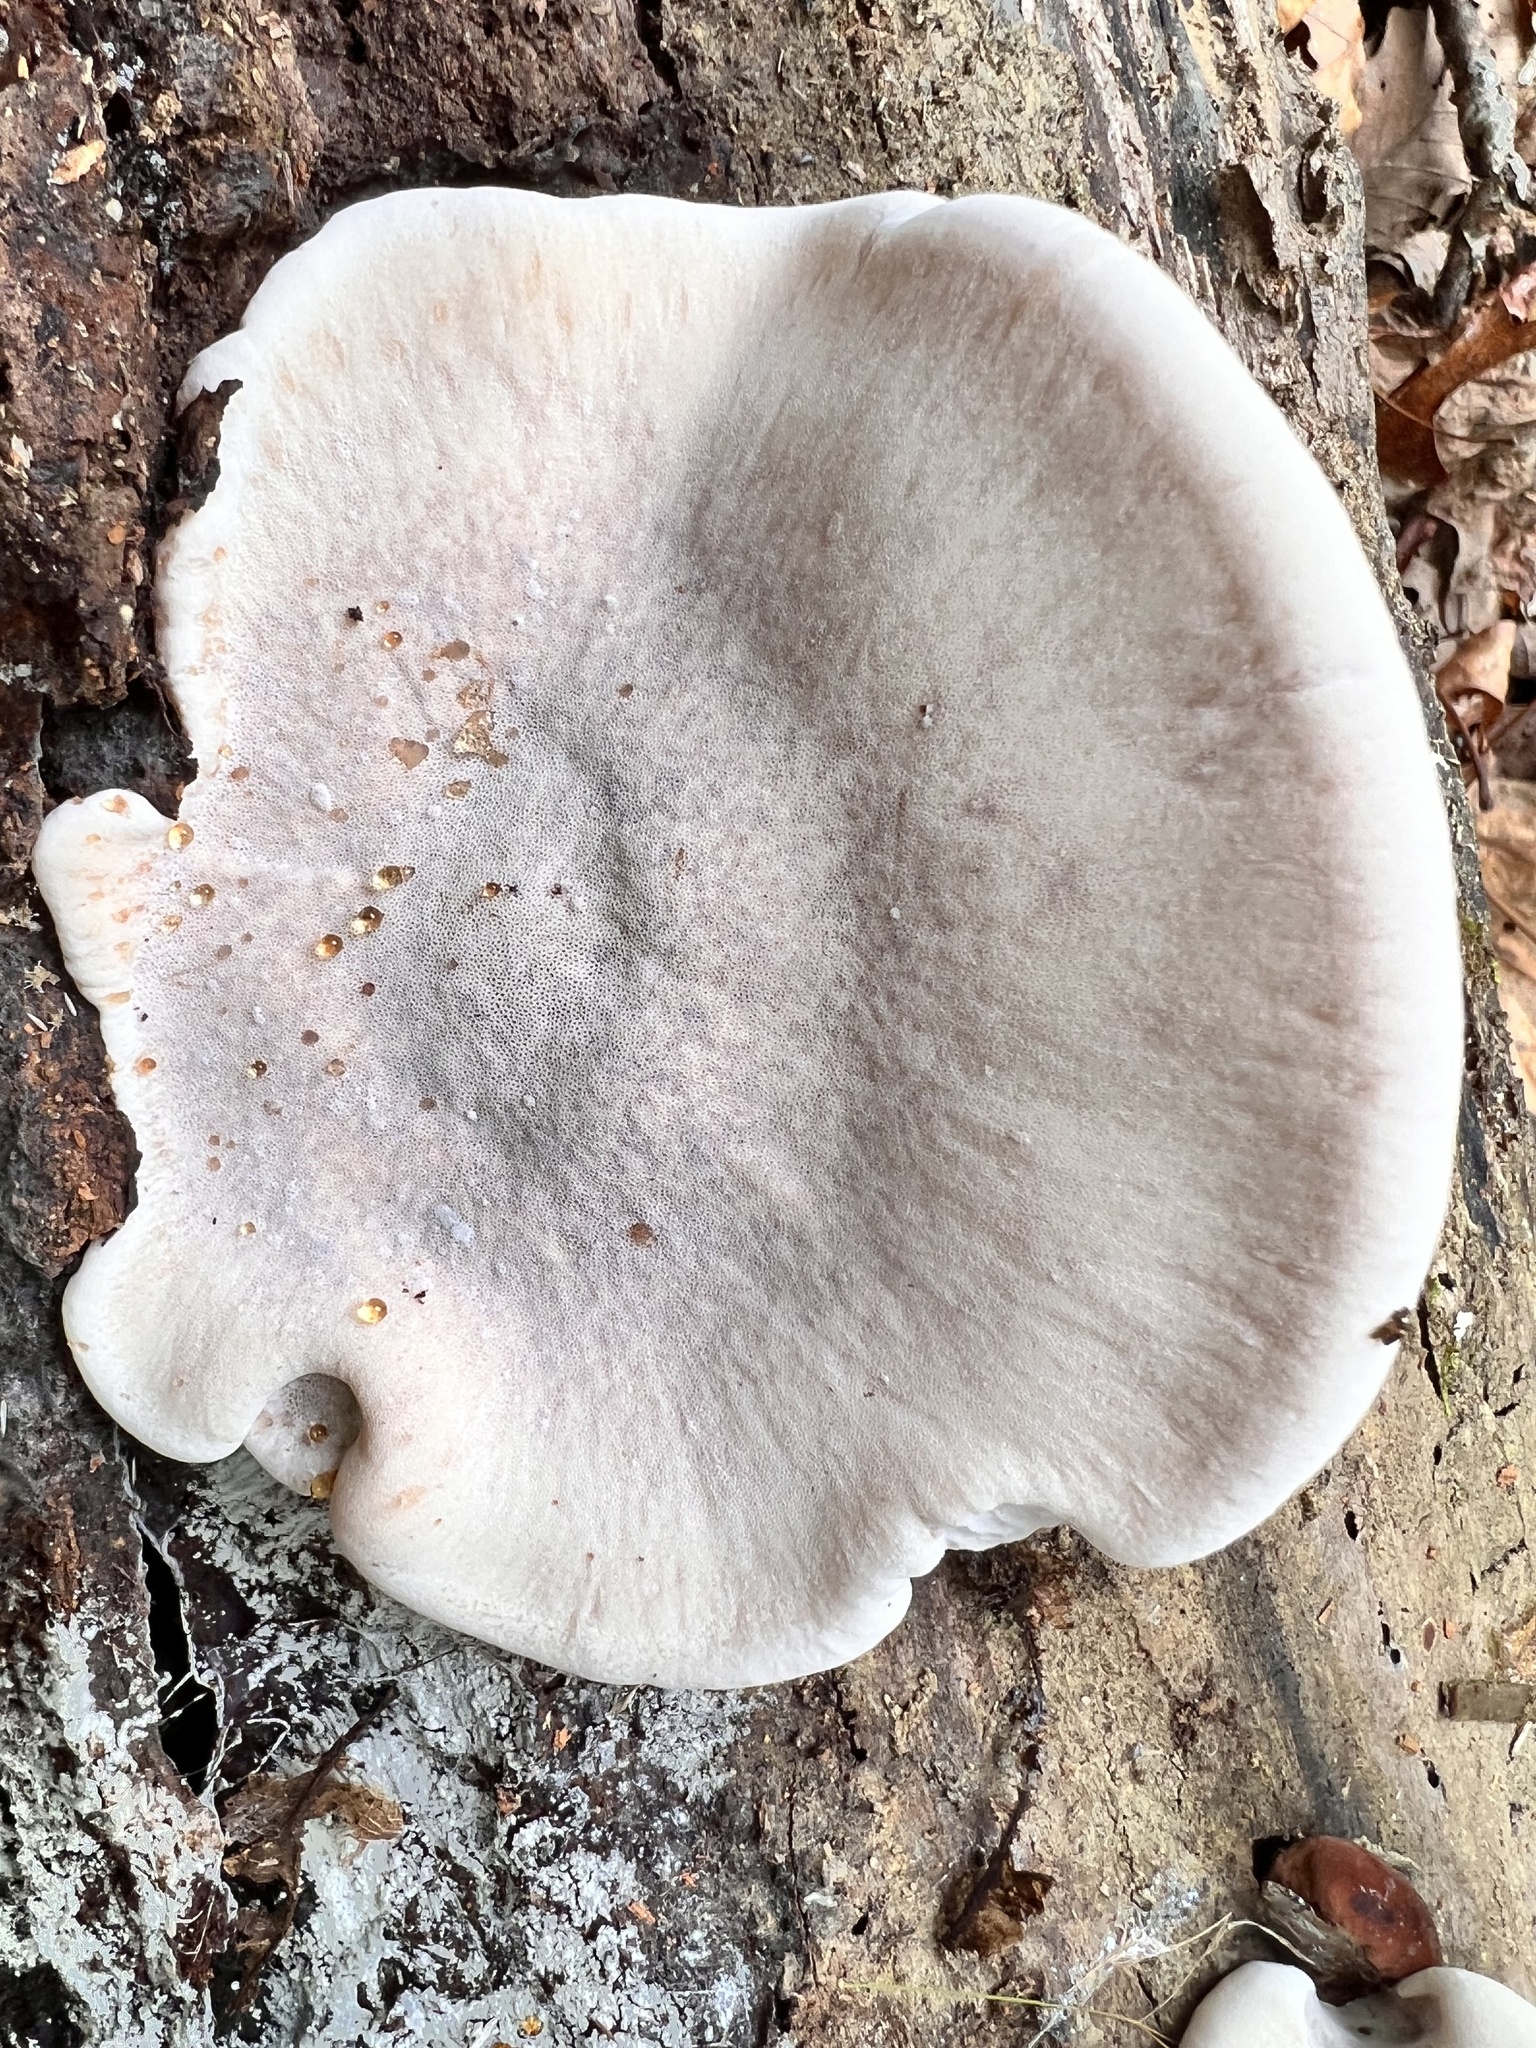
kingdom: Fungi
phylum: Basidiomycota
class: Agaricomycetes
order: Polyporales
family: Ischnodermataceae
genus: Ischnoderma
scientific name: Ischnoderma resinosum
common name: Resinous polypore
